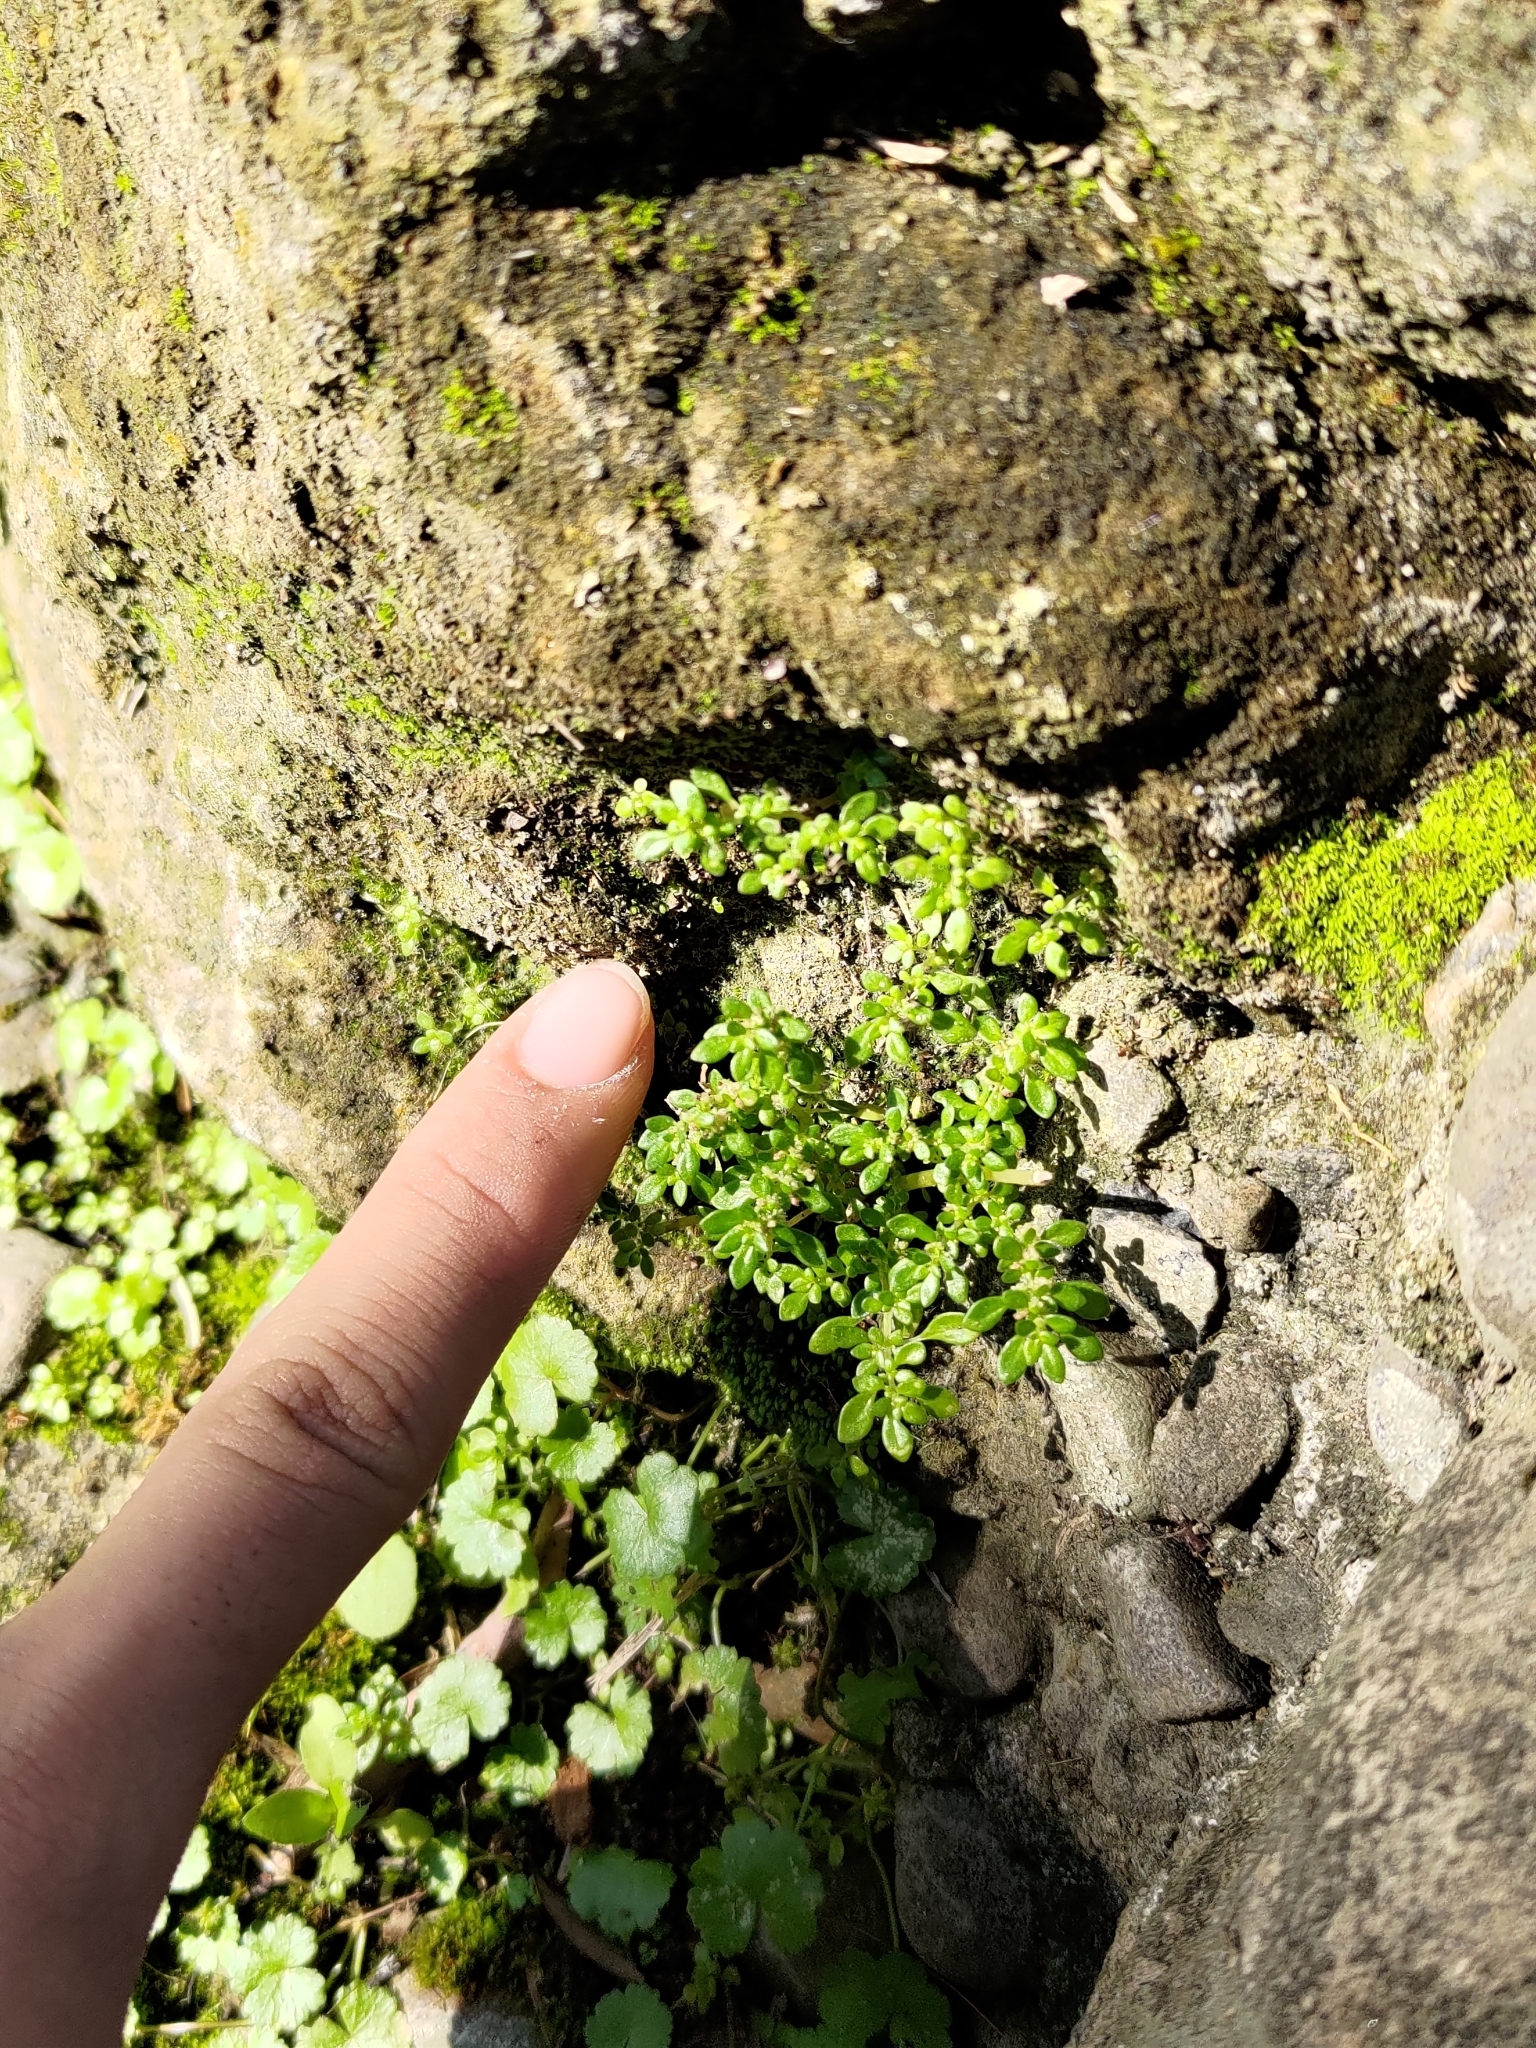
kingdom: Plantae
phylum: Tracheophyta
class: Magnoliopsida
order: Rosales
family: Urticaceae
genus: Pilea
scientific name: Pilea microphylla
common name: Artillery-plant
